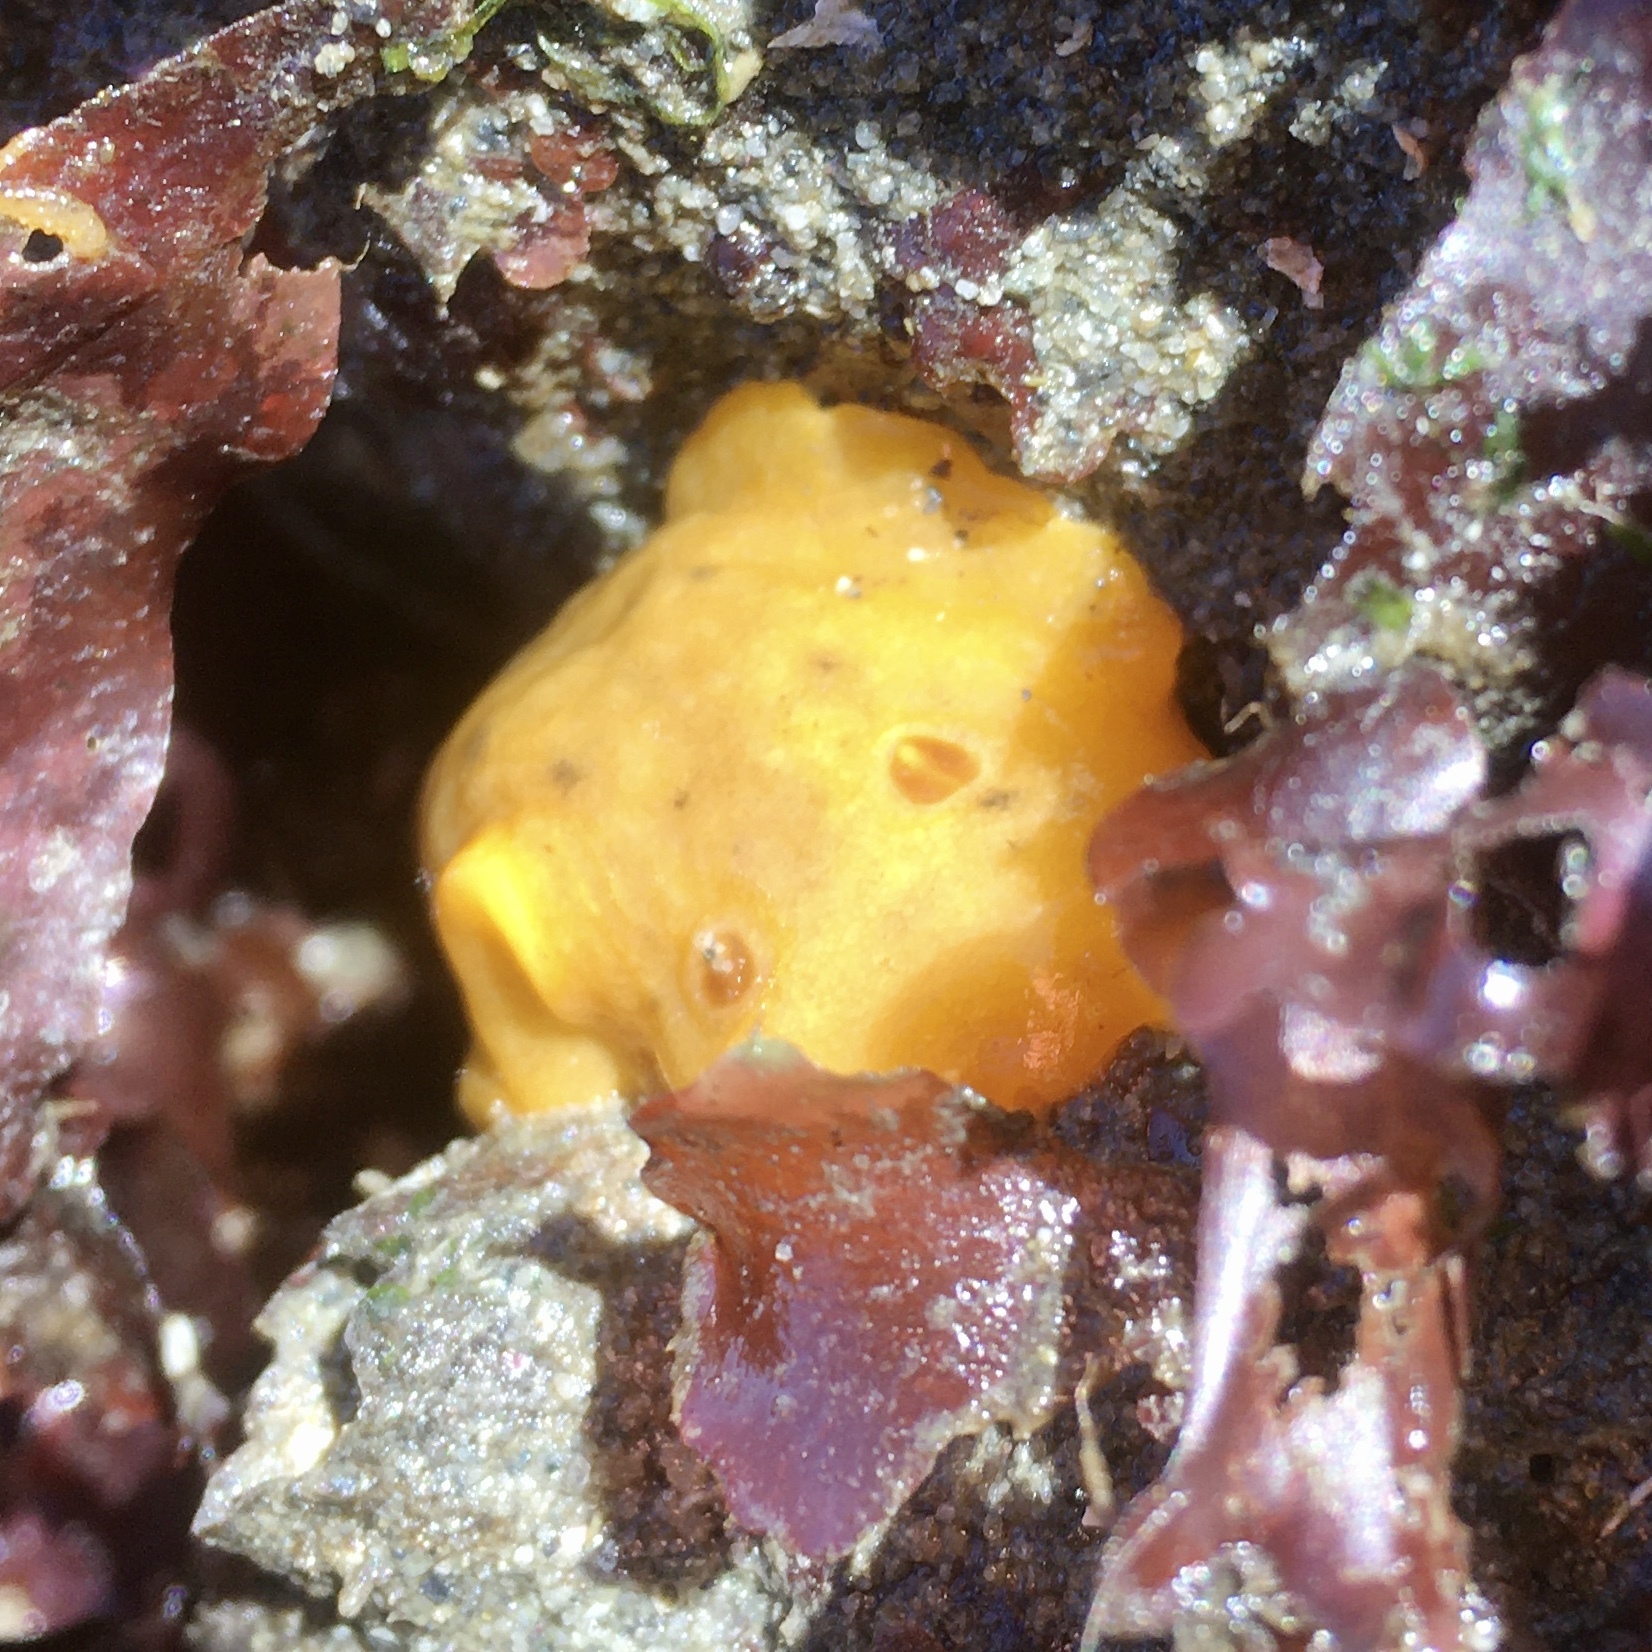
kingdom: Animalia
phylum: Mollusca
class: Gastropoda
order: Nudibranchia
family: Discodorididae
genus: Geitodoris
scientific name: Geitodoris heathi
